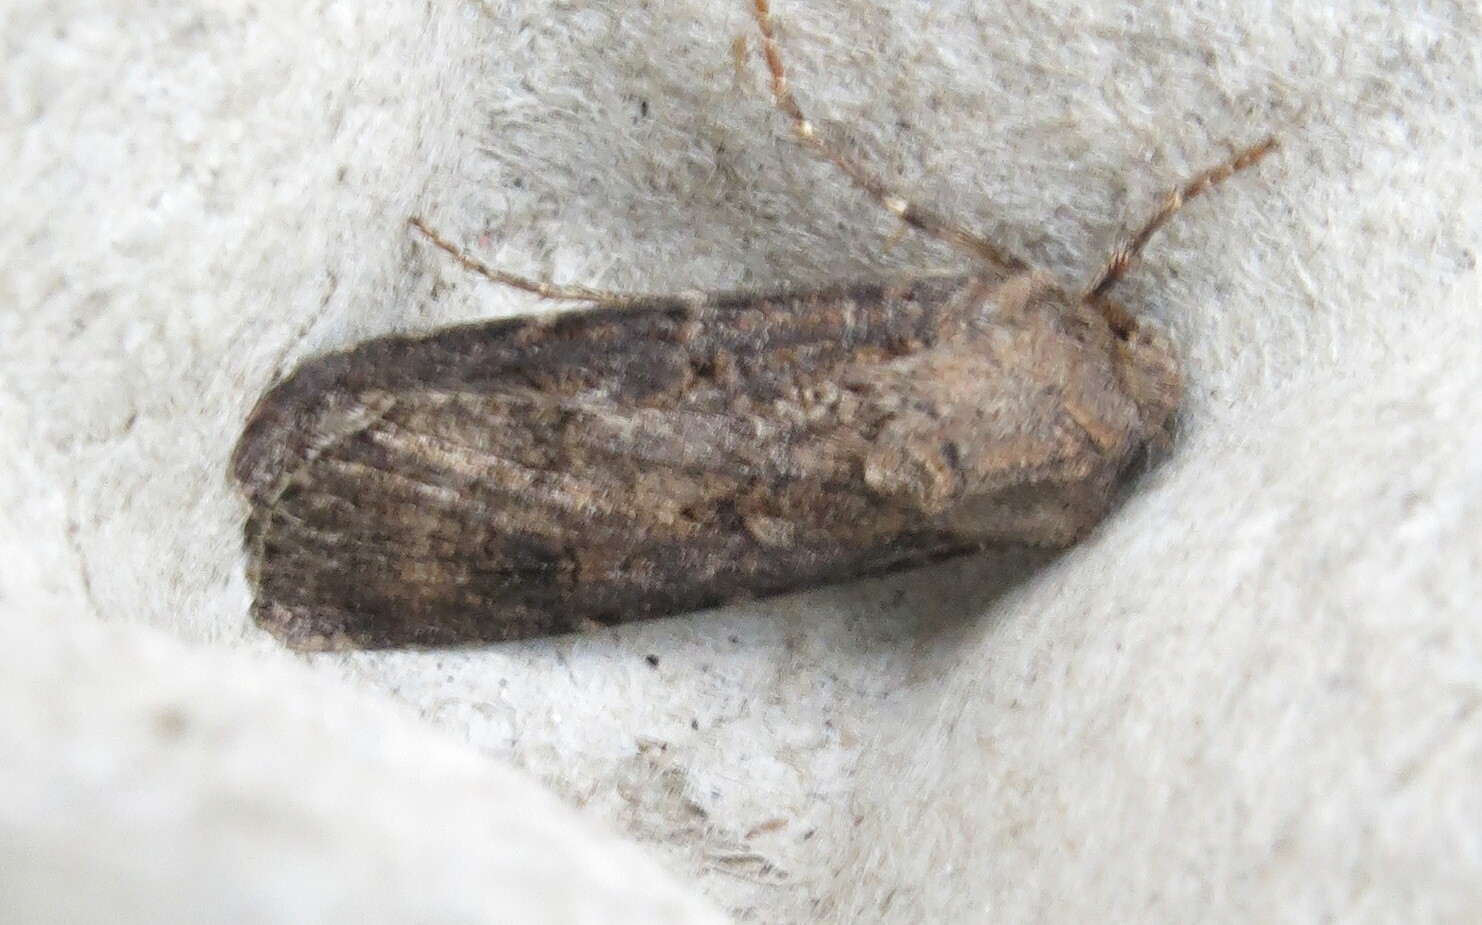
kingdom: Animalia
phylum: Arthropoda
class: Insecta
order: Lepidoptera
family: Noctuidae
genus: Agrotis
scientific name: Agrotis segetum
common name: Turnip moth
